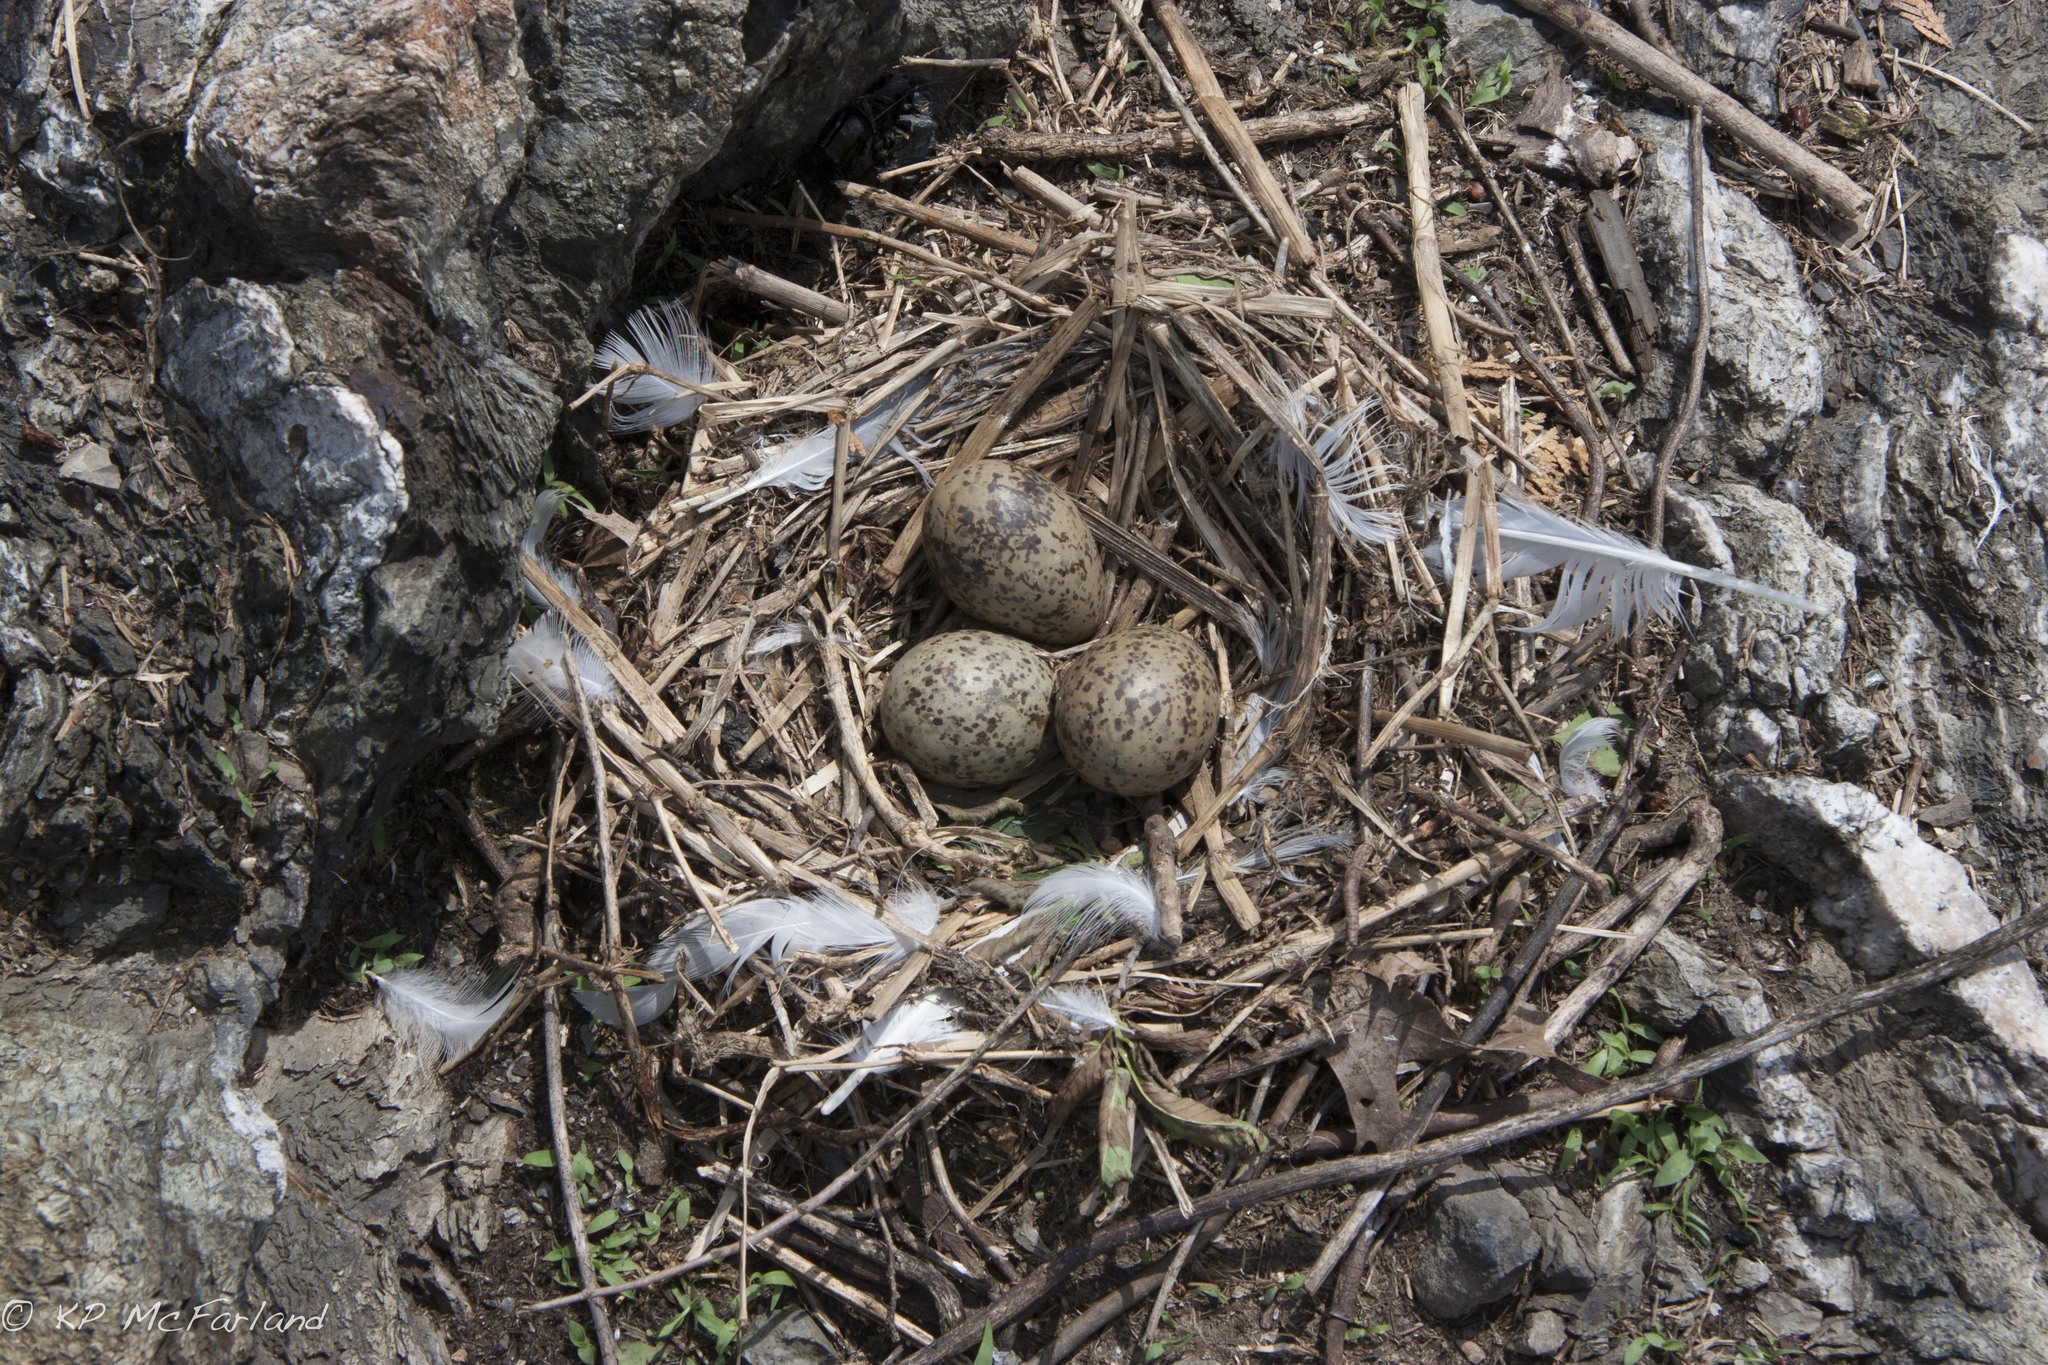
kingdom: Animalia
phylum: Chordata
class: Aves
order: Charadriiformes
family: Laridae
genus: Larus
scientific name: Larus delawarensis
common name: Ring-billed gull
